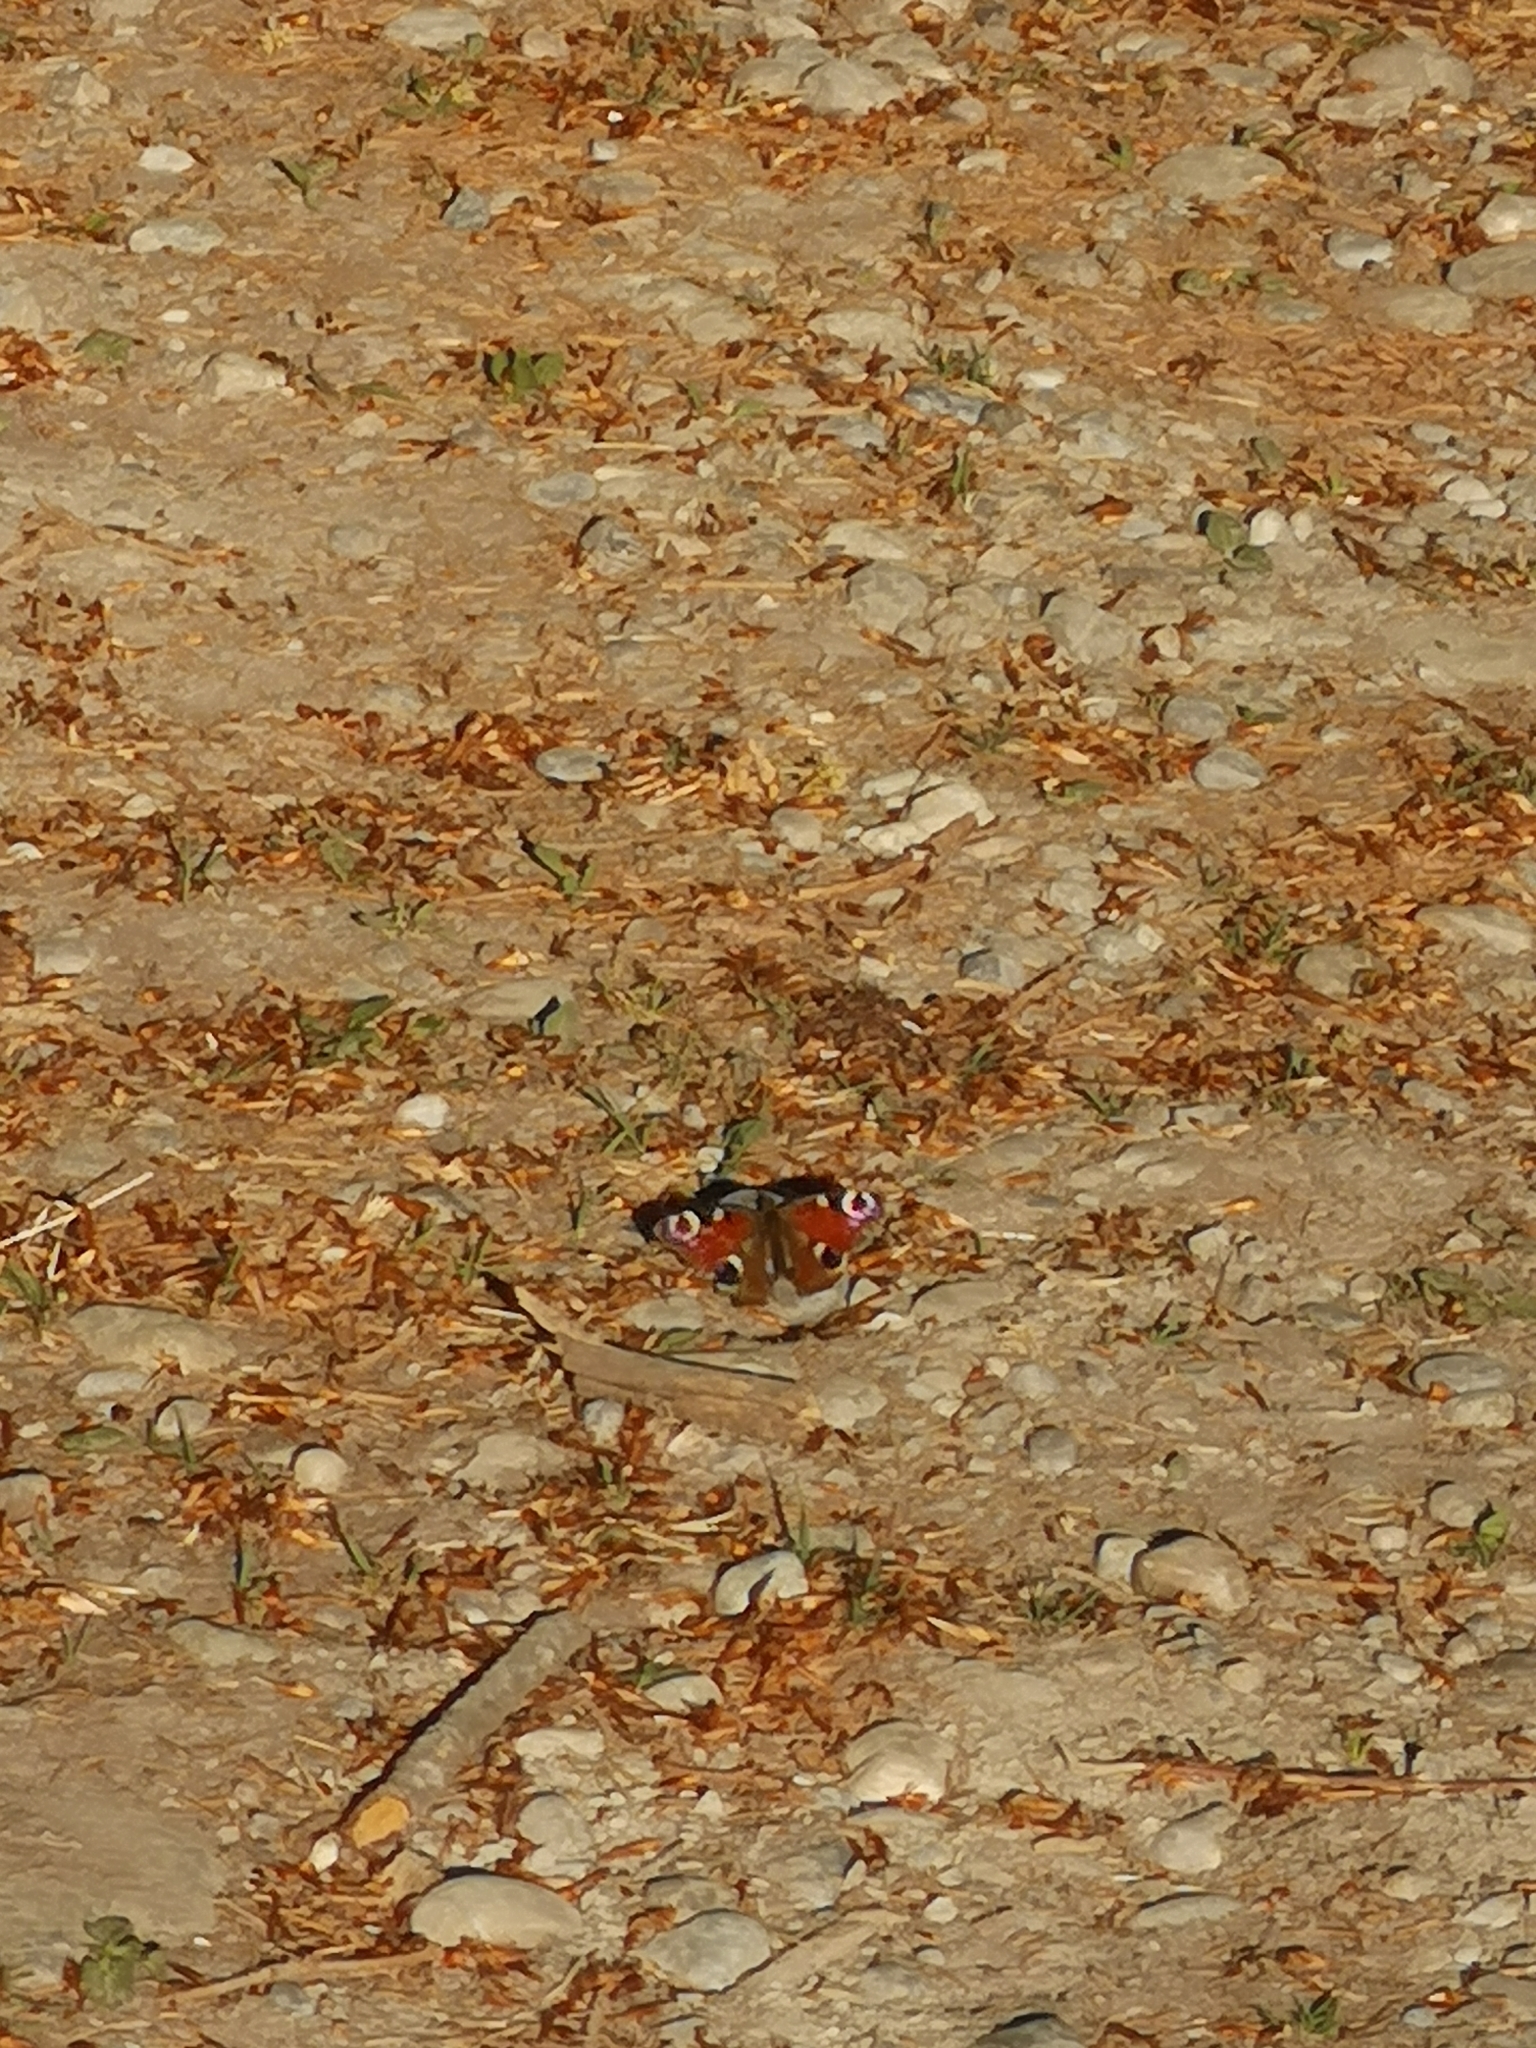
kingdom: Animalia
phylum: Arthropoda
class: Insecta
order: Lepidoptera
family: Nymphalidae
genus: Aglais
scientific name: Aglais io
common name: Peacock
